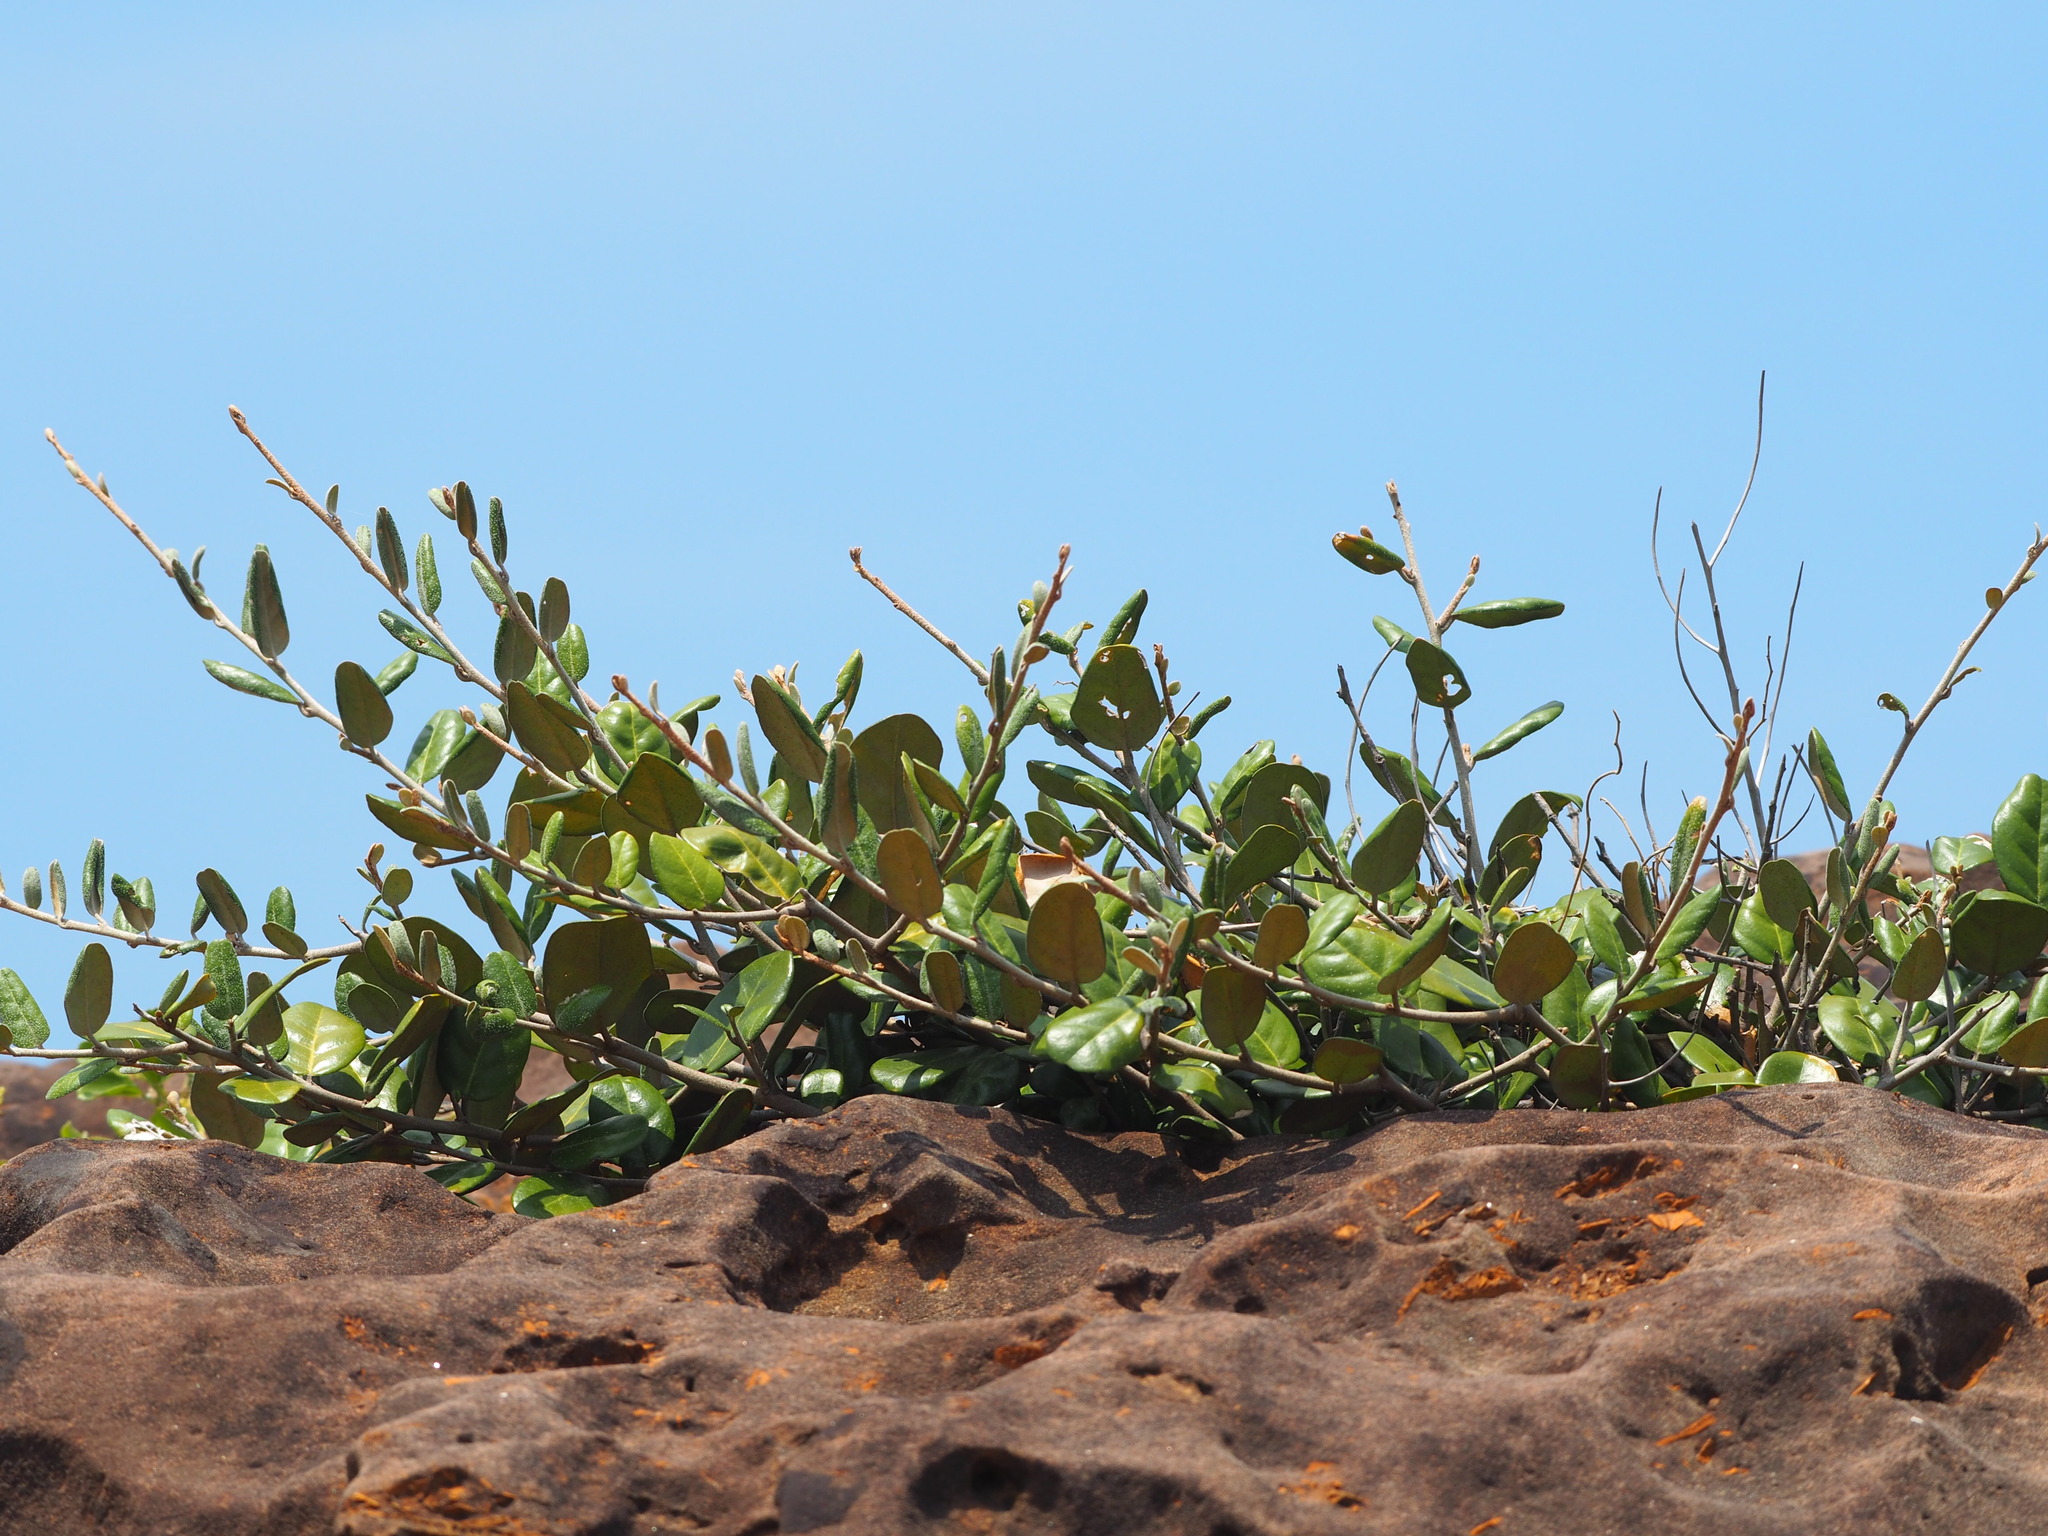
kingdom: Plantae
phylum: Tracheophyta
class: Magnoliopsida
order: Rosales
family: Elaeagnaceae
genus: Elaeagnus
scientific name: Elaeagnus formosana
